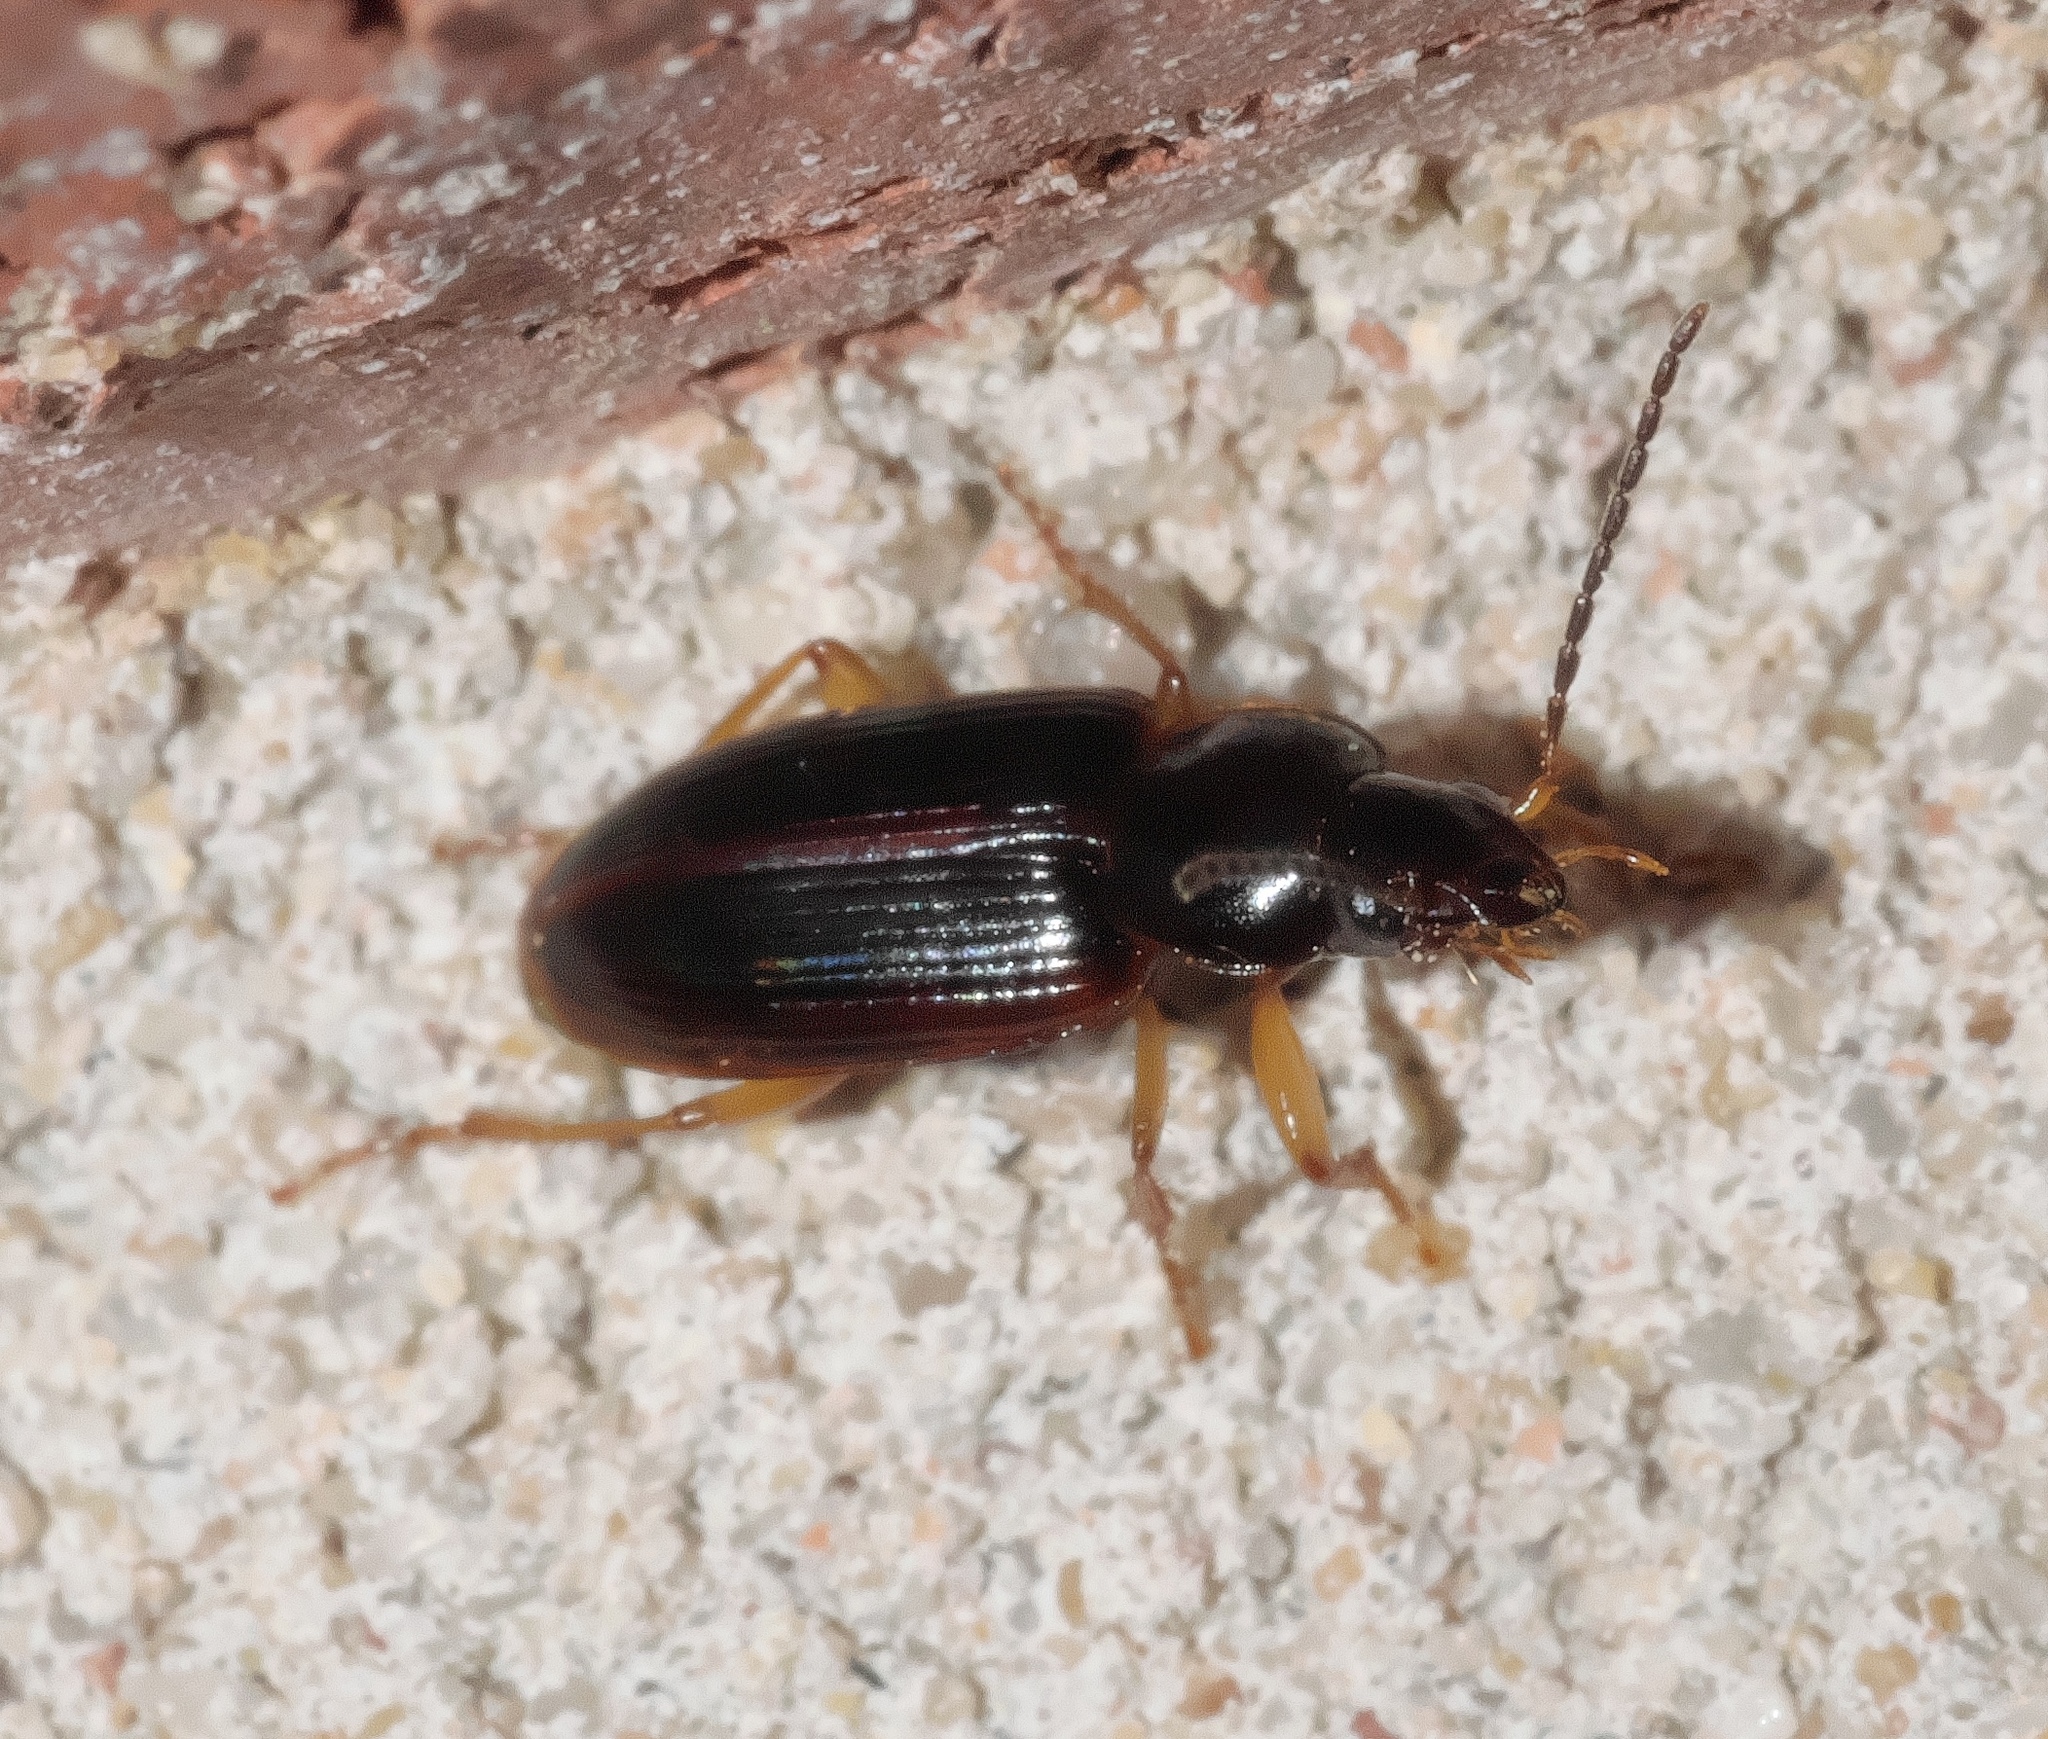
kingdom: Animalia
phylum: Arthropoda
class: Insecta
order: Coleoptera
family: Carabidae
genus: Stenolophus
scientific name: Stenolophus ochropezus
